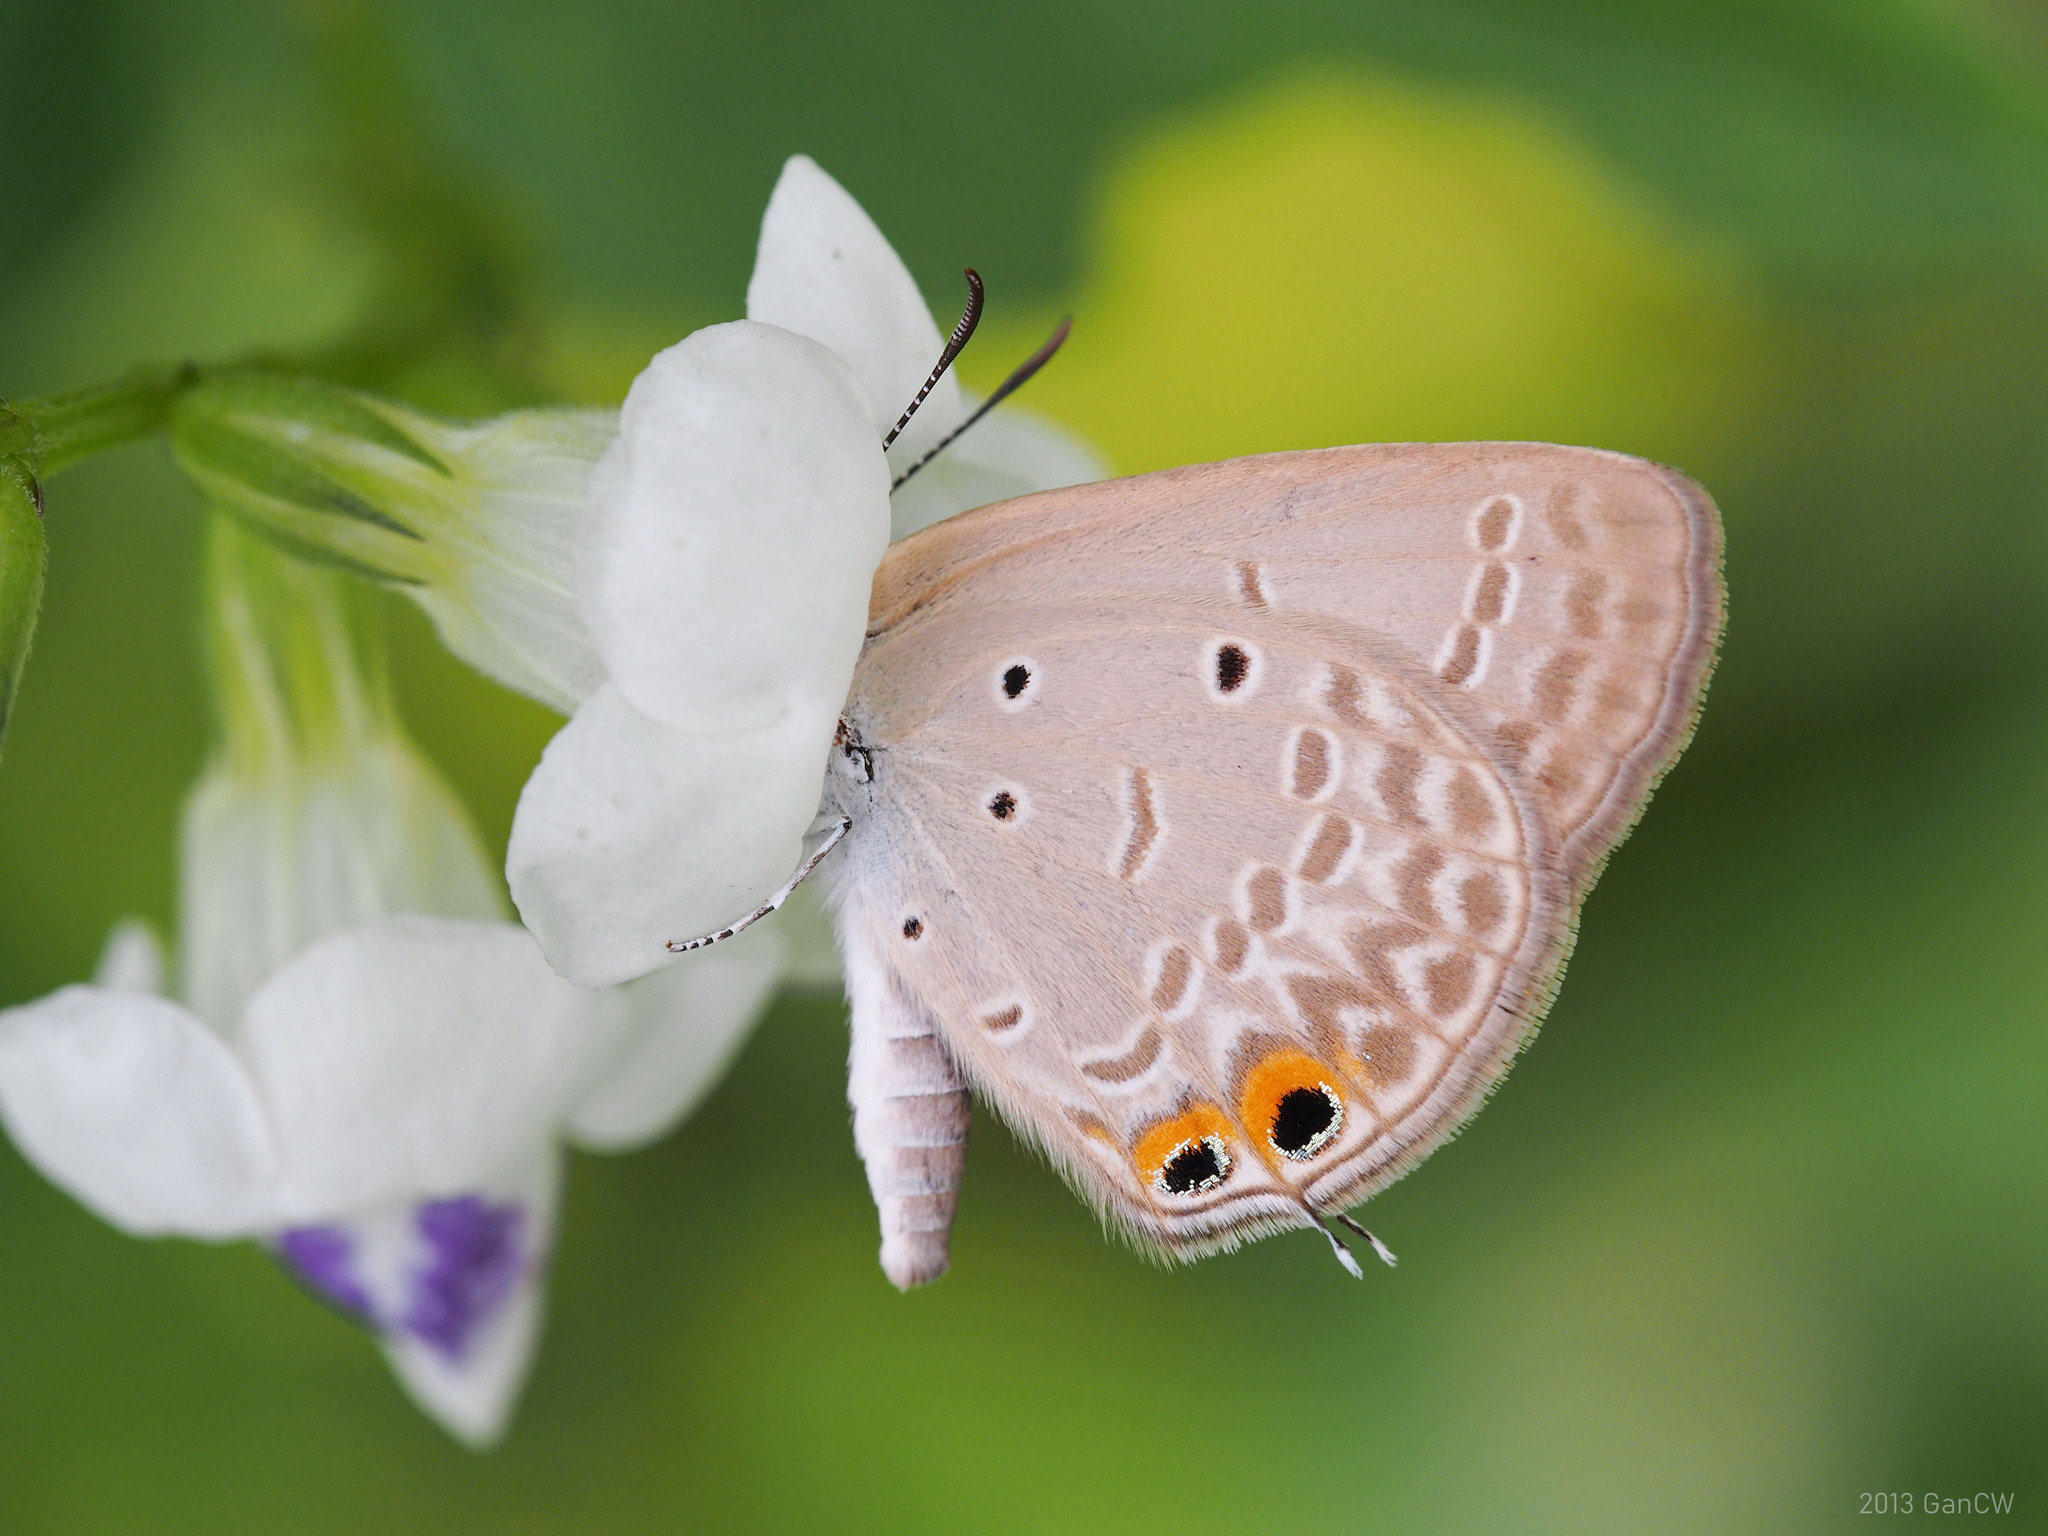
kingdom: Animalia
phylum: Arthropoda
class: Insecta
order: Lepidoptera
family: Lycaenidae
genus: Euchrysops
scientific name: Euchrysops cnejus
